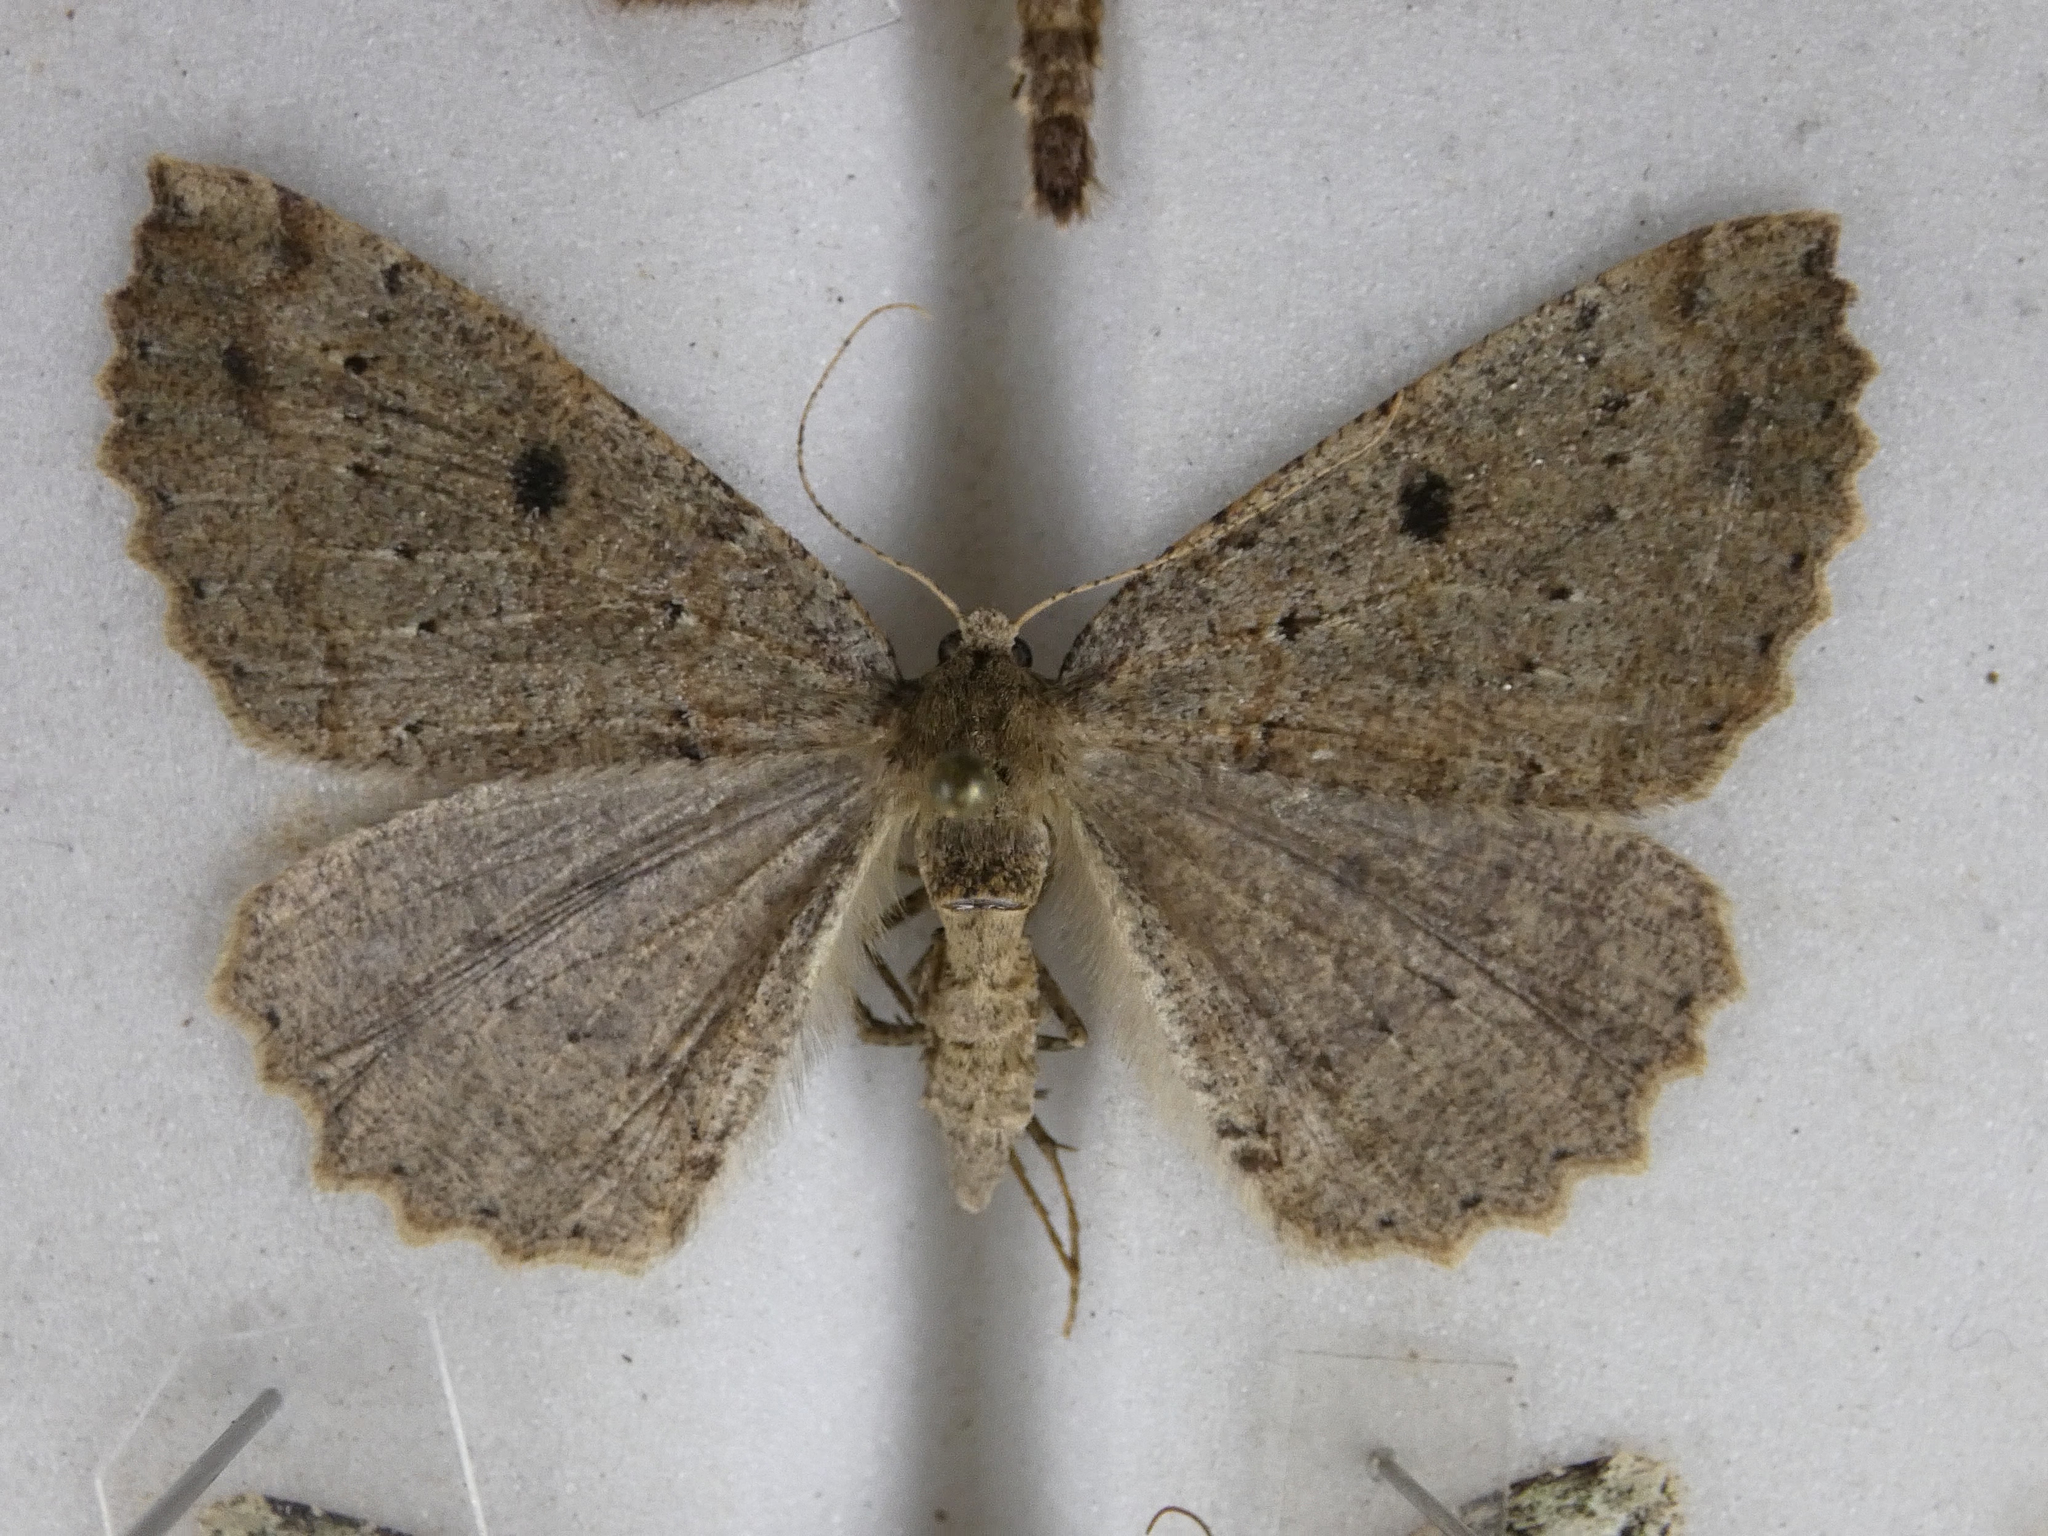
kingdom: Animalia
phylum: Arthropoda
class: Insecta
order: Lepidoptera
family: Geometridae
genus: Cleora
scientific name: Cleora scriptaria
